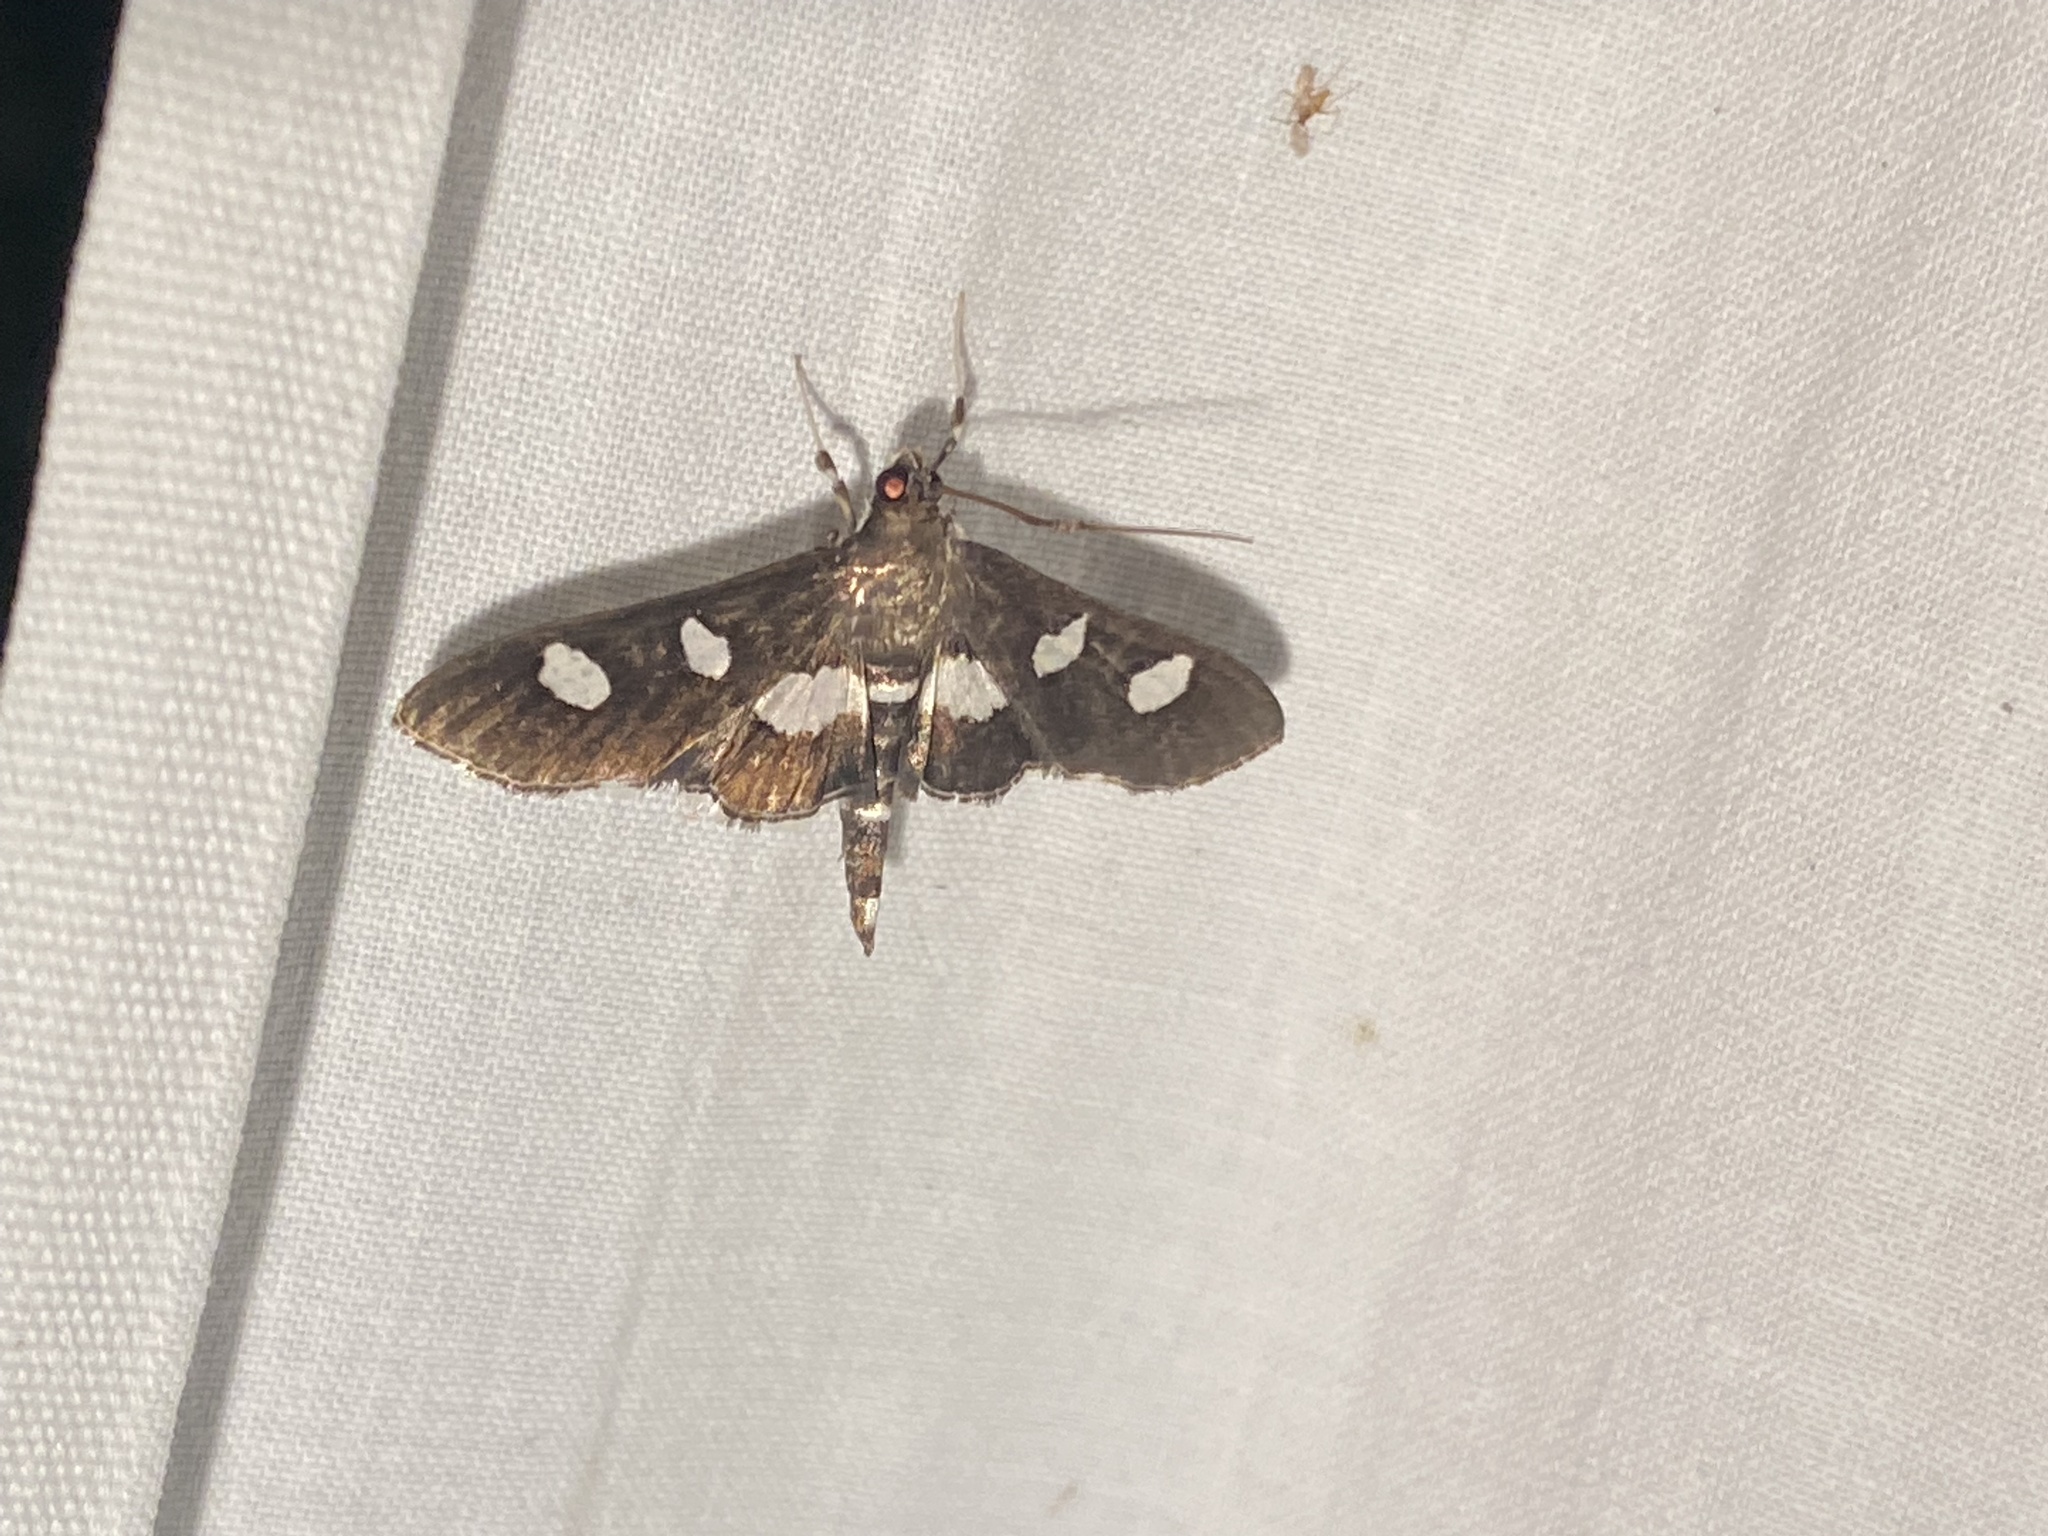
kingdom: Animalia
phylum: Arthropoda
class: Insecta
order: Lepidoptera
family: Crambidae
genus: Desmia
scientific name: Desmia funeralis
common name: Grape leaf folder moth
